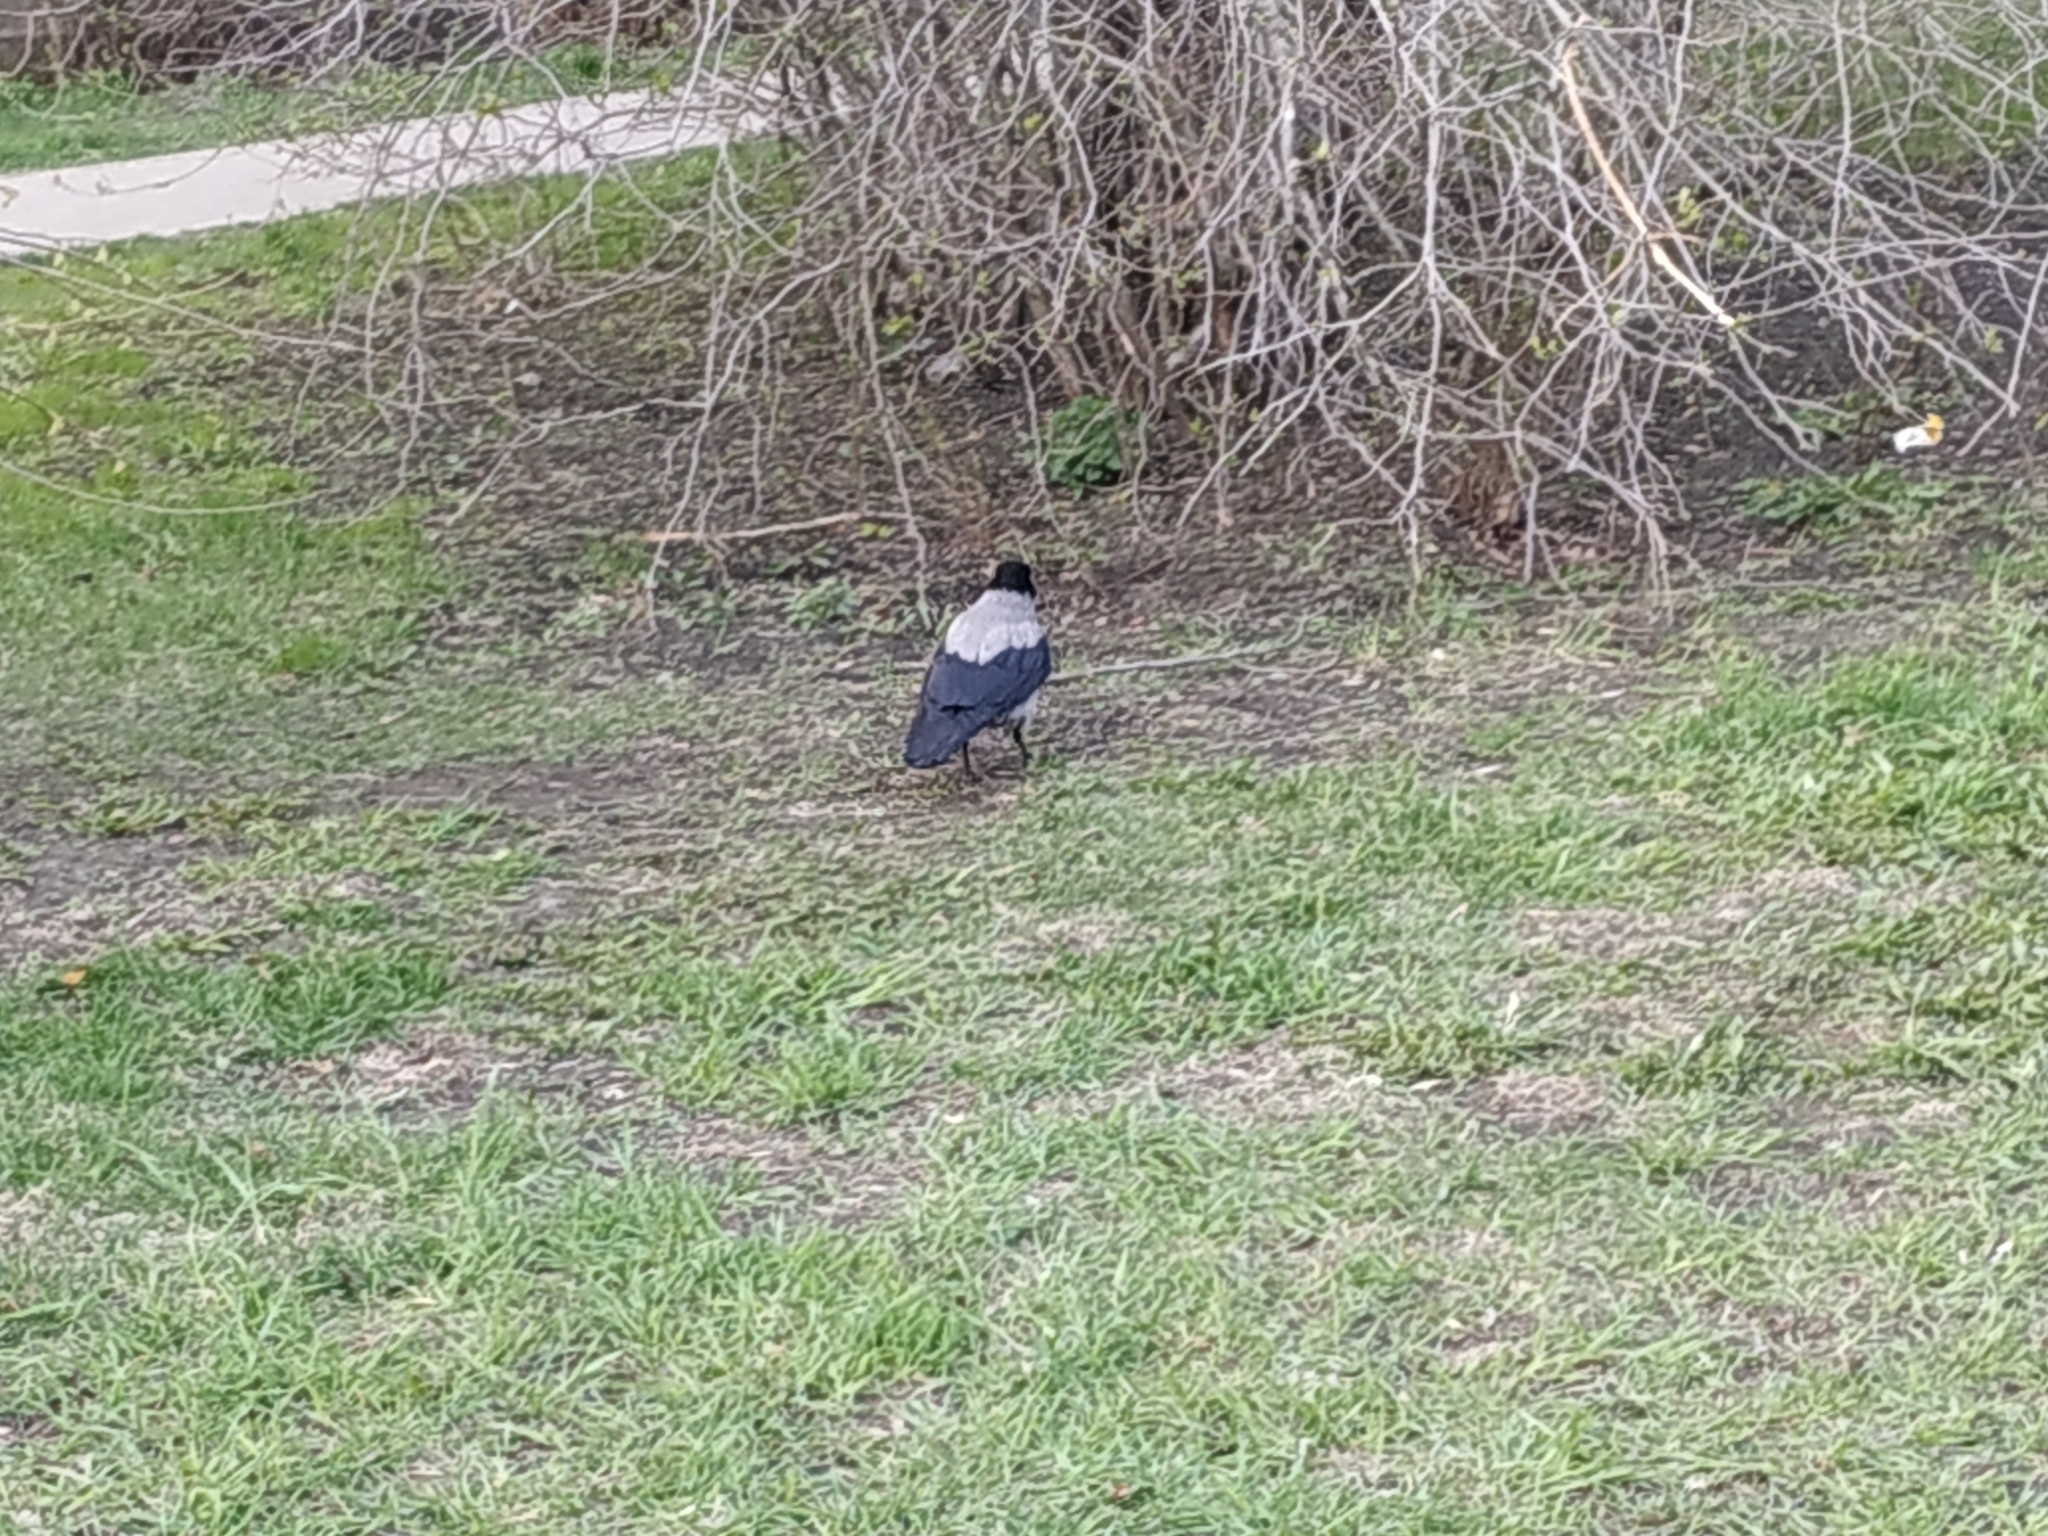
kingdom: Animalia
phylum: Chordata
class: Aves
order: Passeriformes
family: Corvidae
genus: Corvus
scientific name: Corvus cornix
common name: Hooded crow
